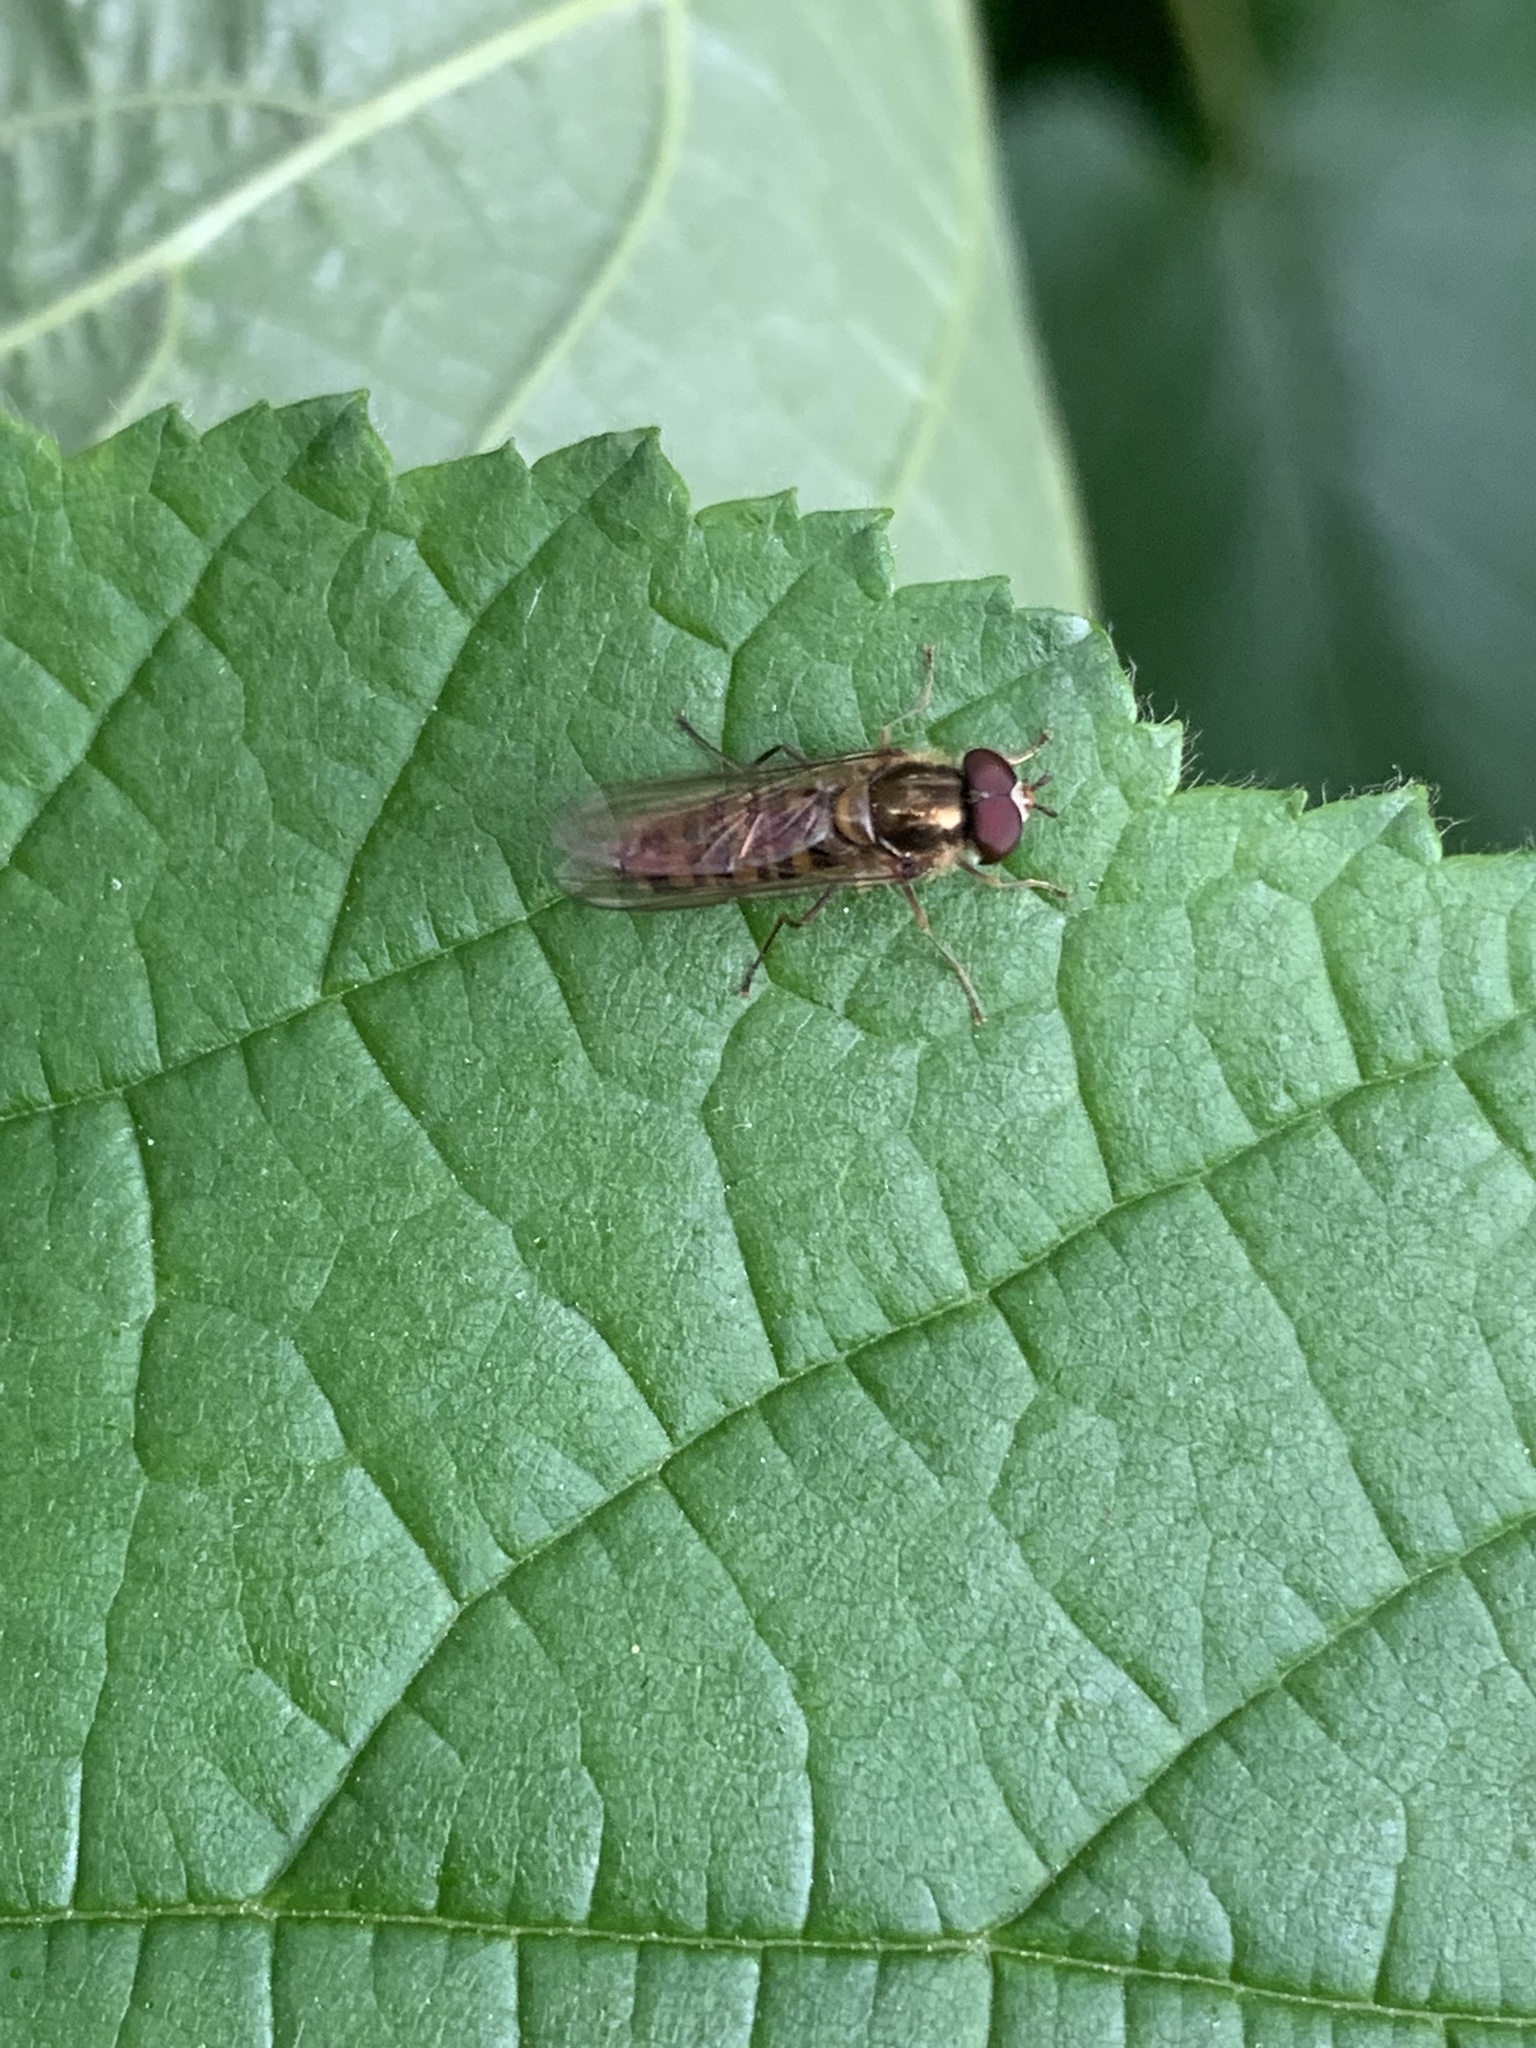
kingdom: Animalia
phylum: Arthropoda
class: Insecta
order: Diptera
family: Syrphidae
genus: Episyrphus
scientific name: Episyrphus balteatus
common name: Marmalade hoverfly
